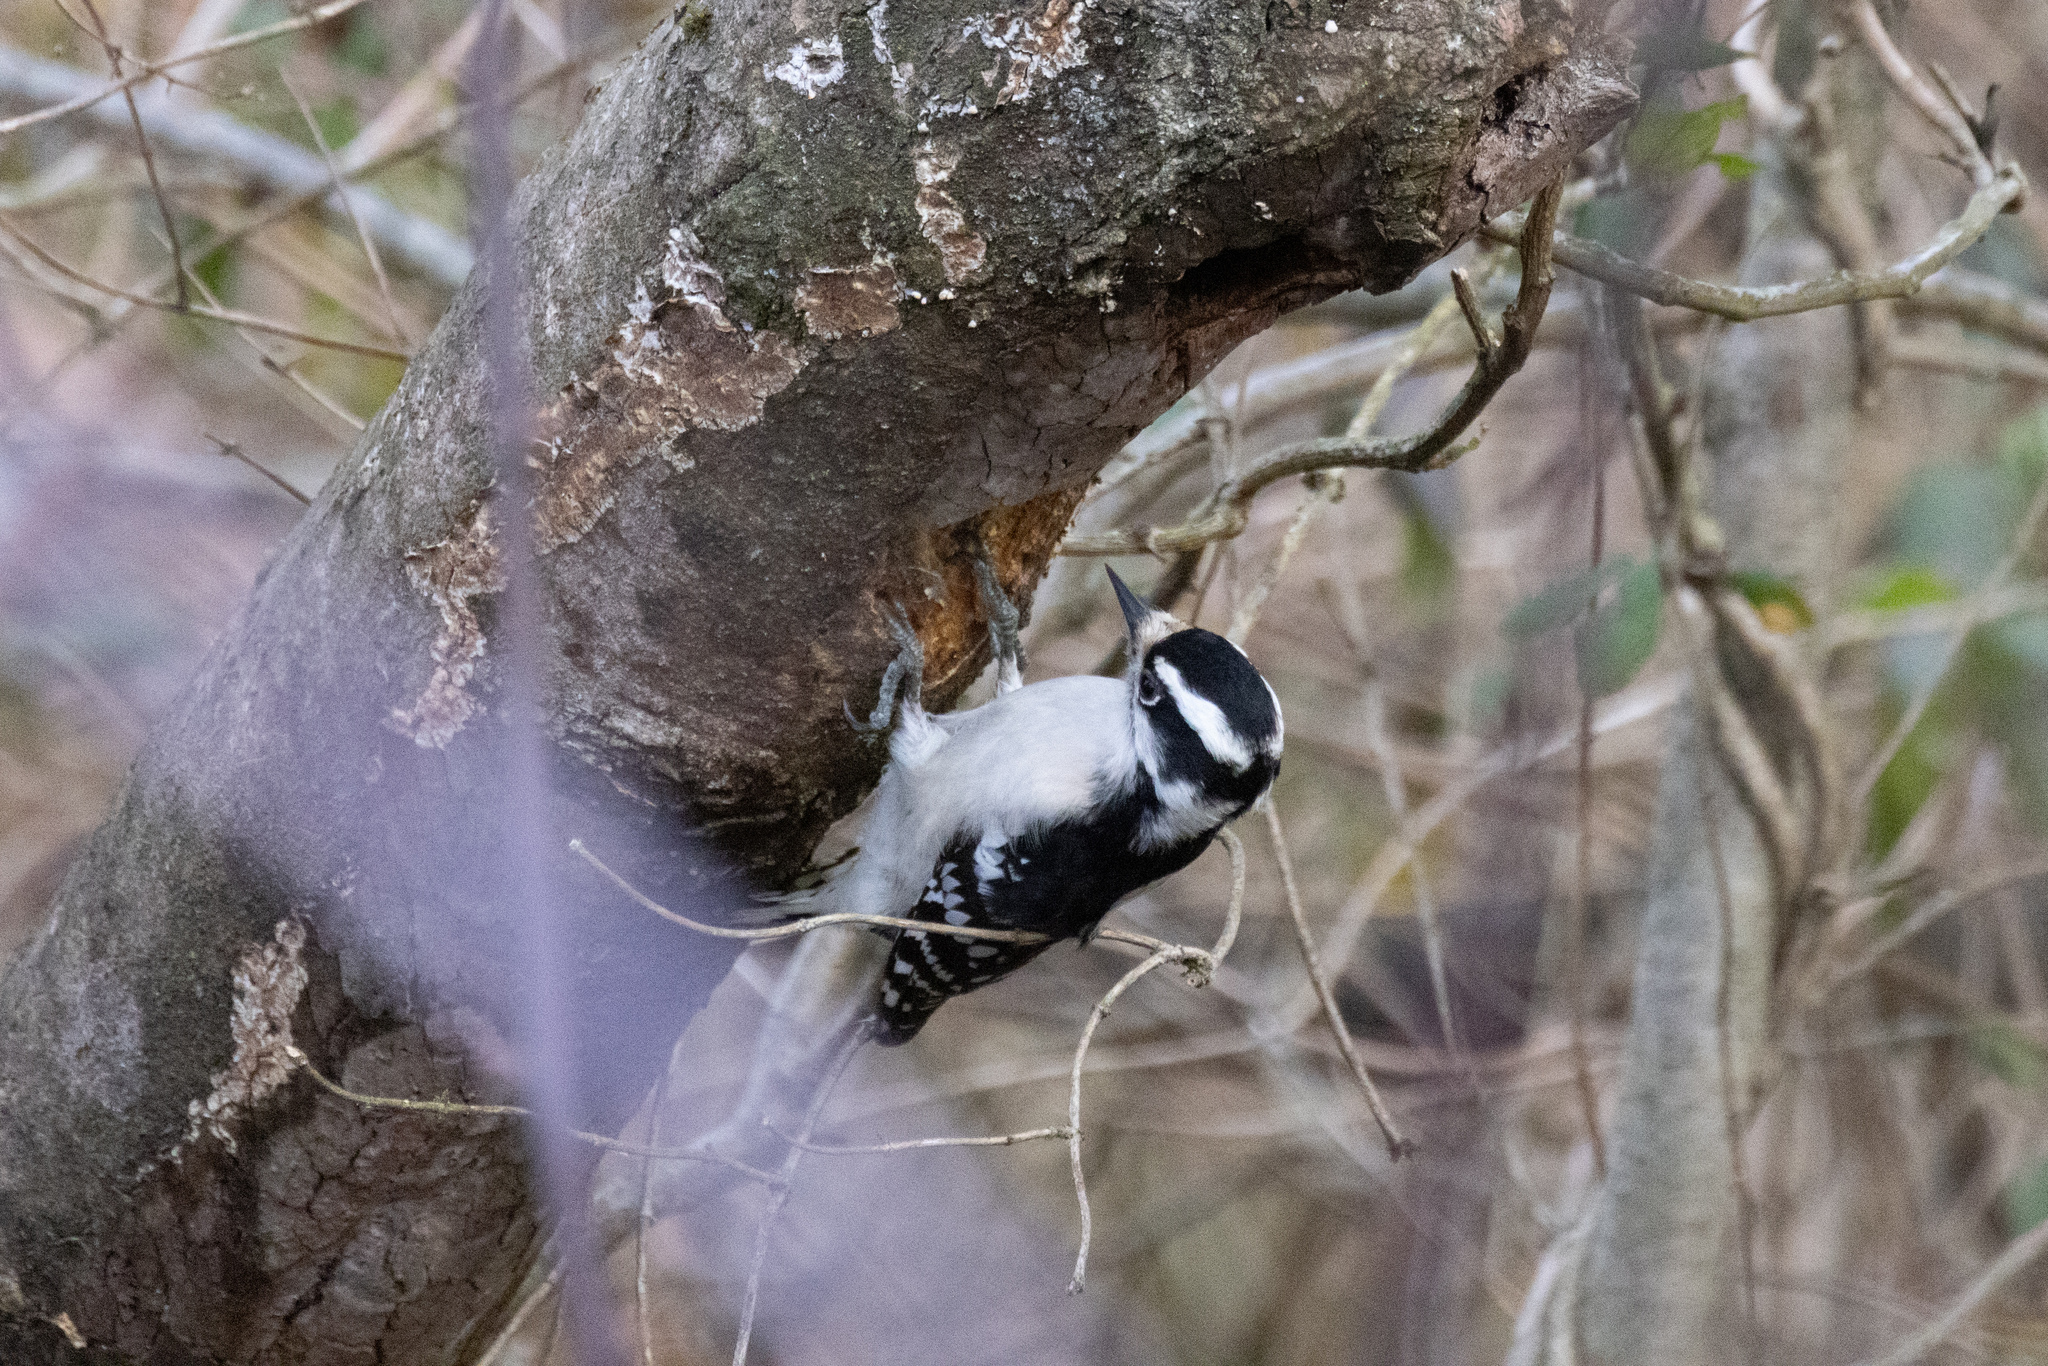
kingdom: Animalia
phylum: Chordata
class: Aves
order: Piciformes
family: Picidae
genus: Dryobates
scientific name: Dryobates pubescens
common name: Downy woodpecker
